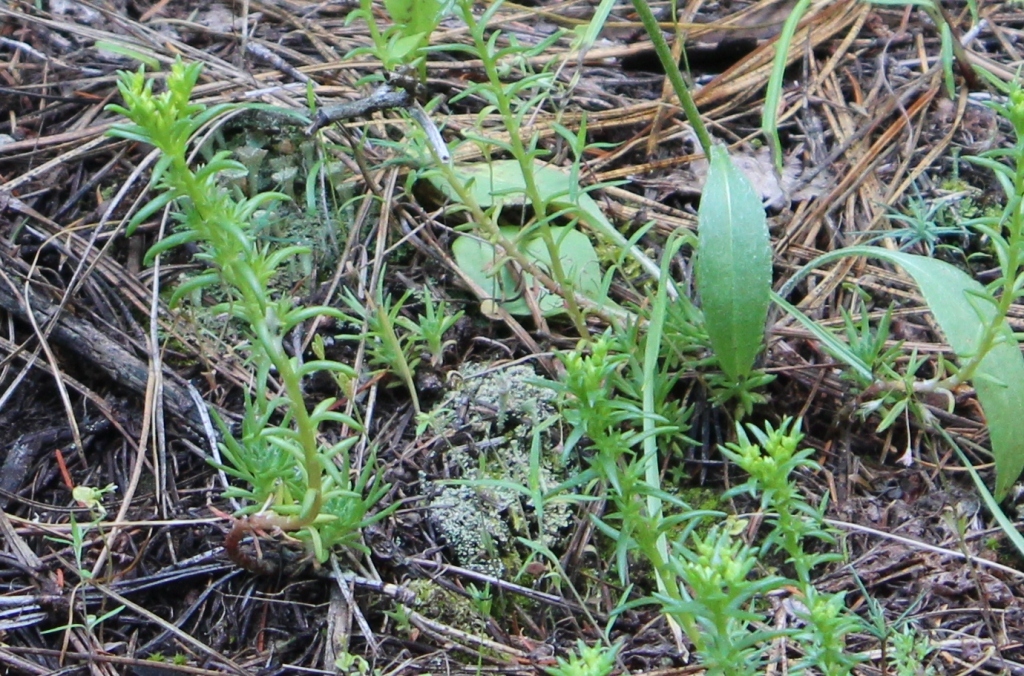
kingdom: Plantae
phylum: Tracheophyta
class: Magnoliopsida
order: Saxifragales
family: Crassulaceae
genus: Sedum
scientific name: Sedum stenopetalum
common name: Narrow-petaled stonecrop
